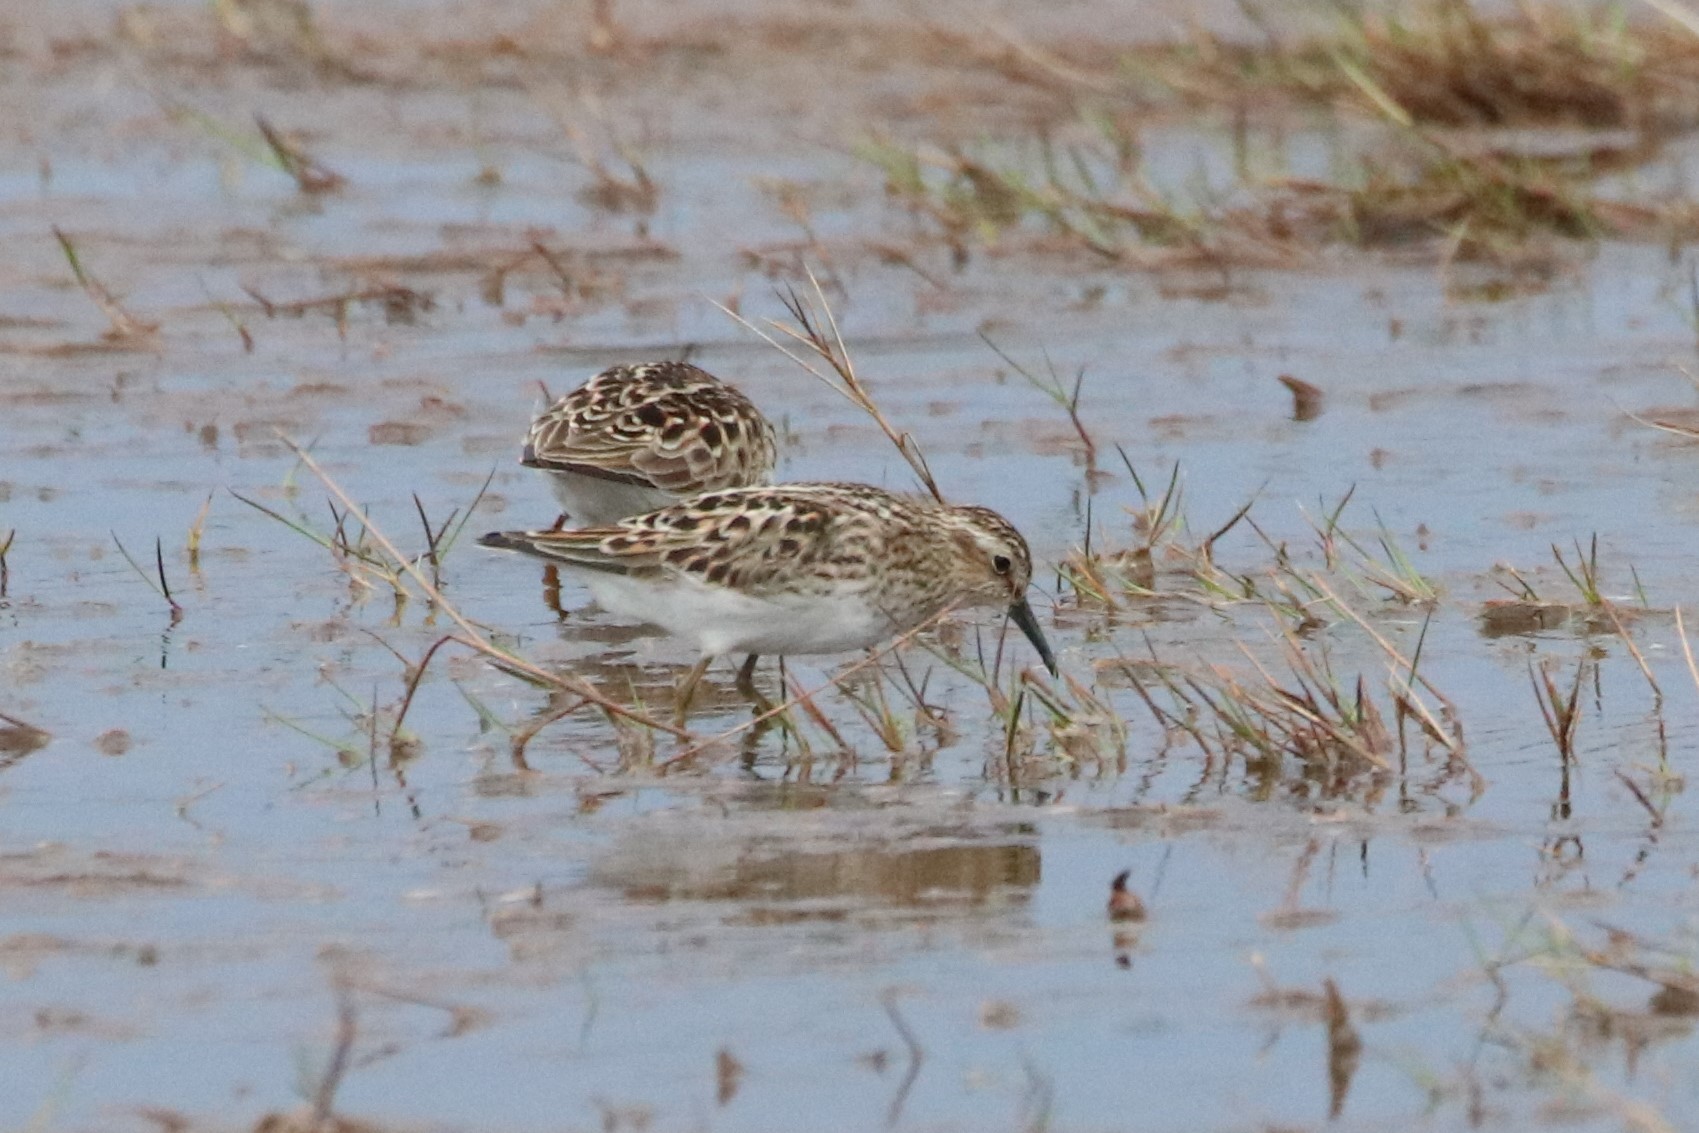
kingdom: Animalia
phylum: Chordata
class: Aves
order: Charadriiformes
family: Scolopacidae
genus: Calidris
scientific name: Calidris minutilla
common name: Least sandpiper
